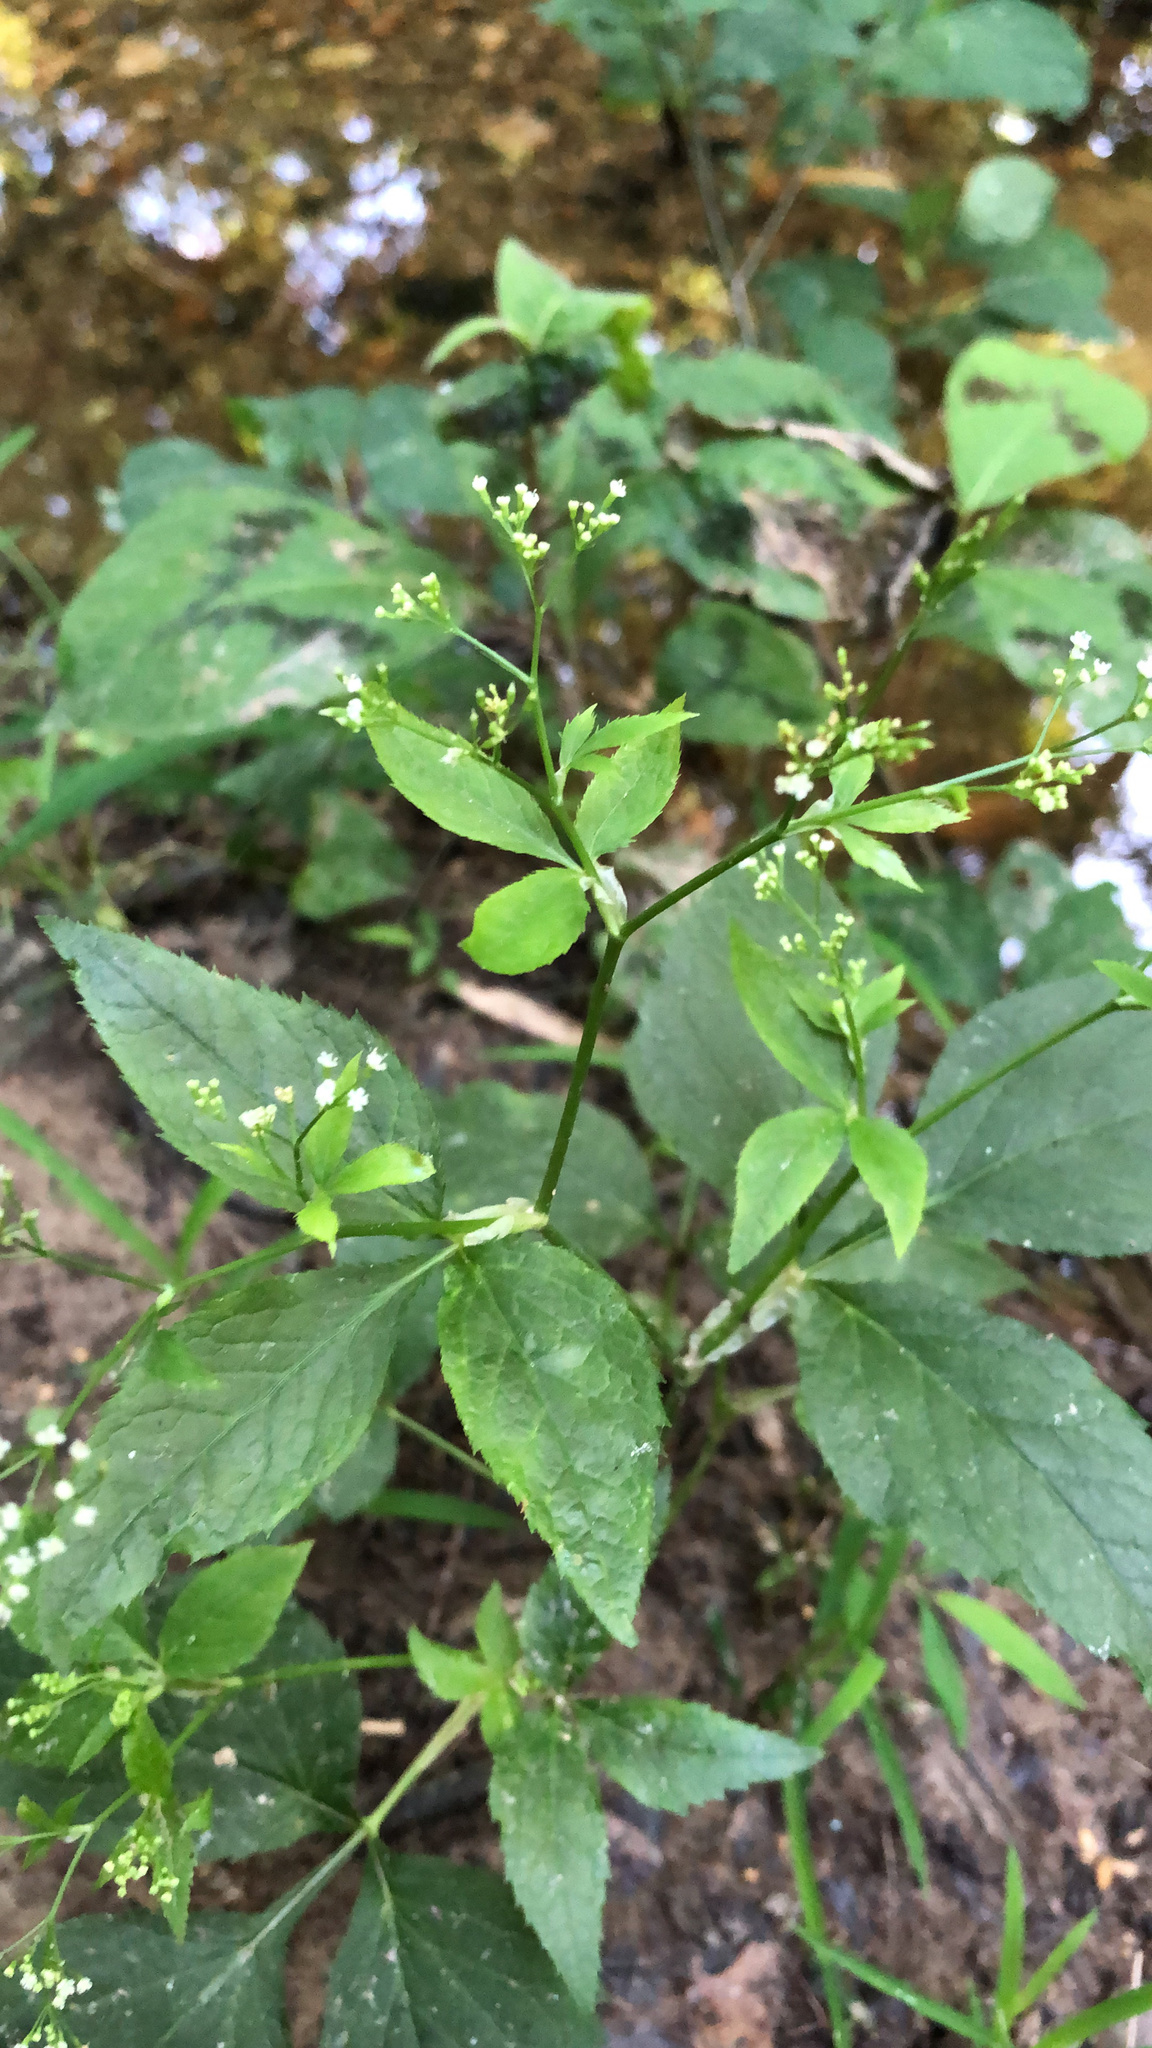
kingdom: Plantae
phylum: Tracheophyta
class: Magnoliopsida
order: Apiales
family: Apiaceae
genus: Cryptotaenia
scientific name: Cryptotaenia canadensis
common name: Honewort
